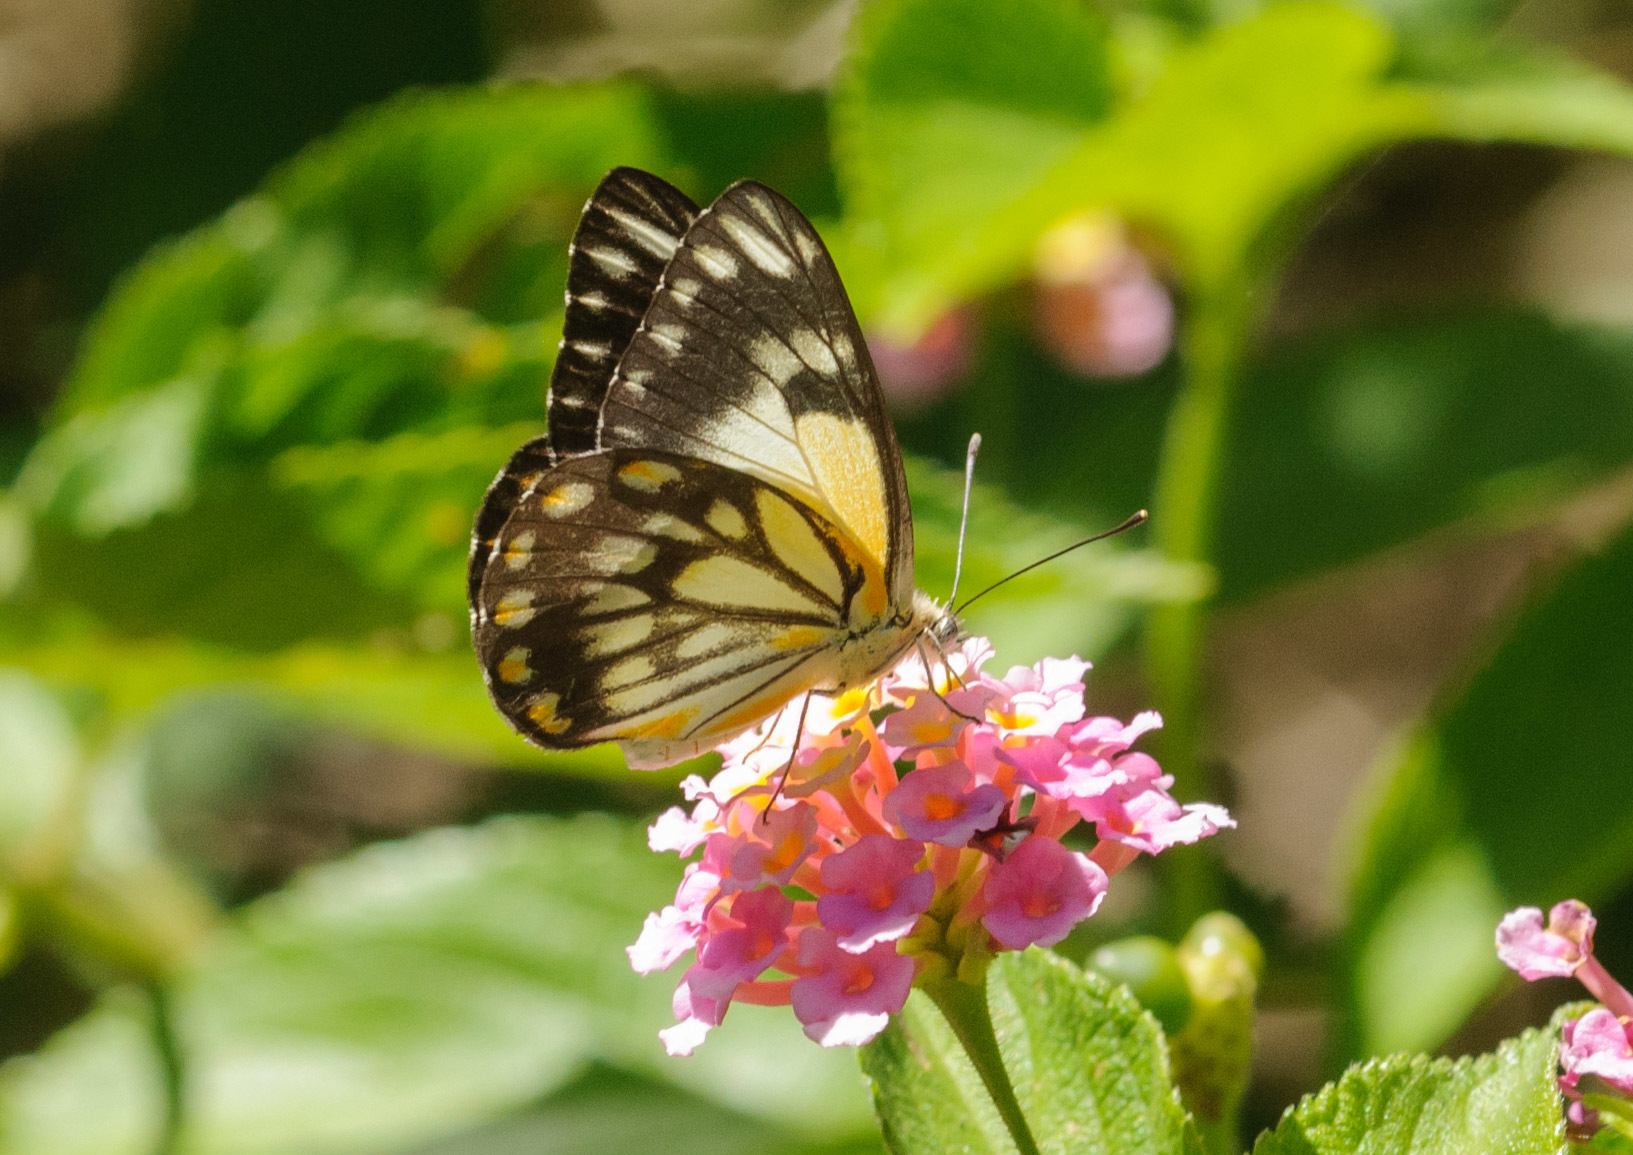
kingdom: Animalia
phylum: Arthropoda
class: Insecta
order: Lepidoptera
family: Pieridae
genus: Belenois
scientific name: Belenois java
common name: Caper white
